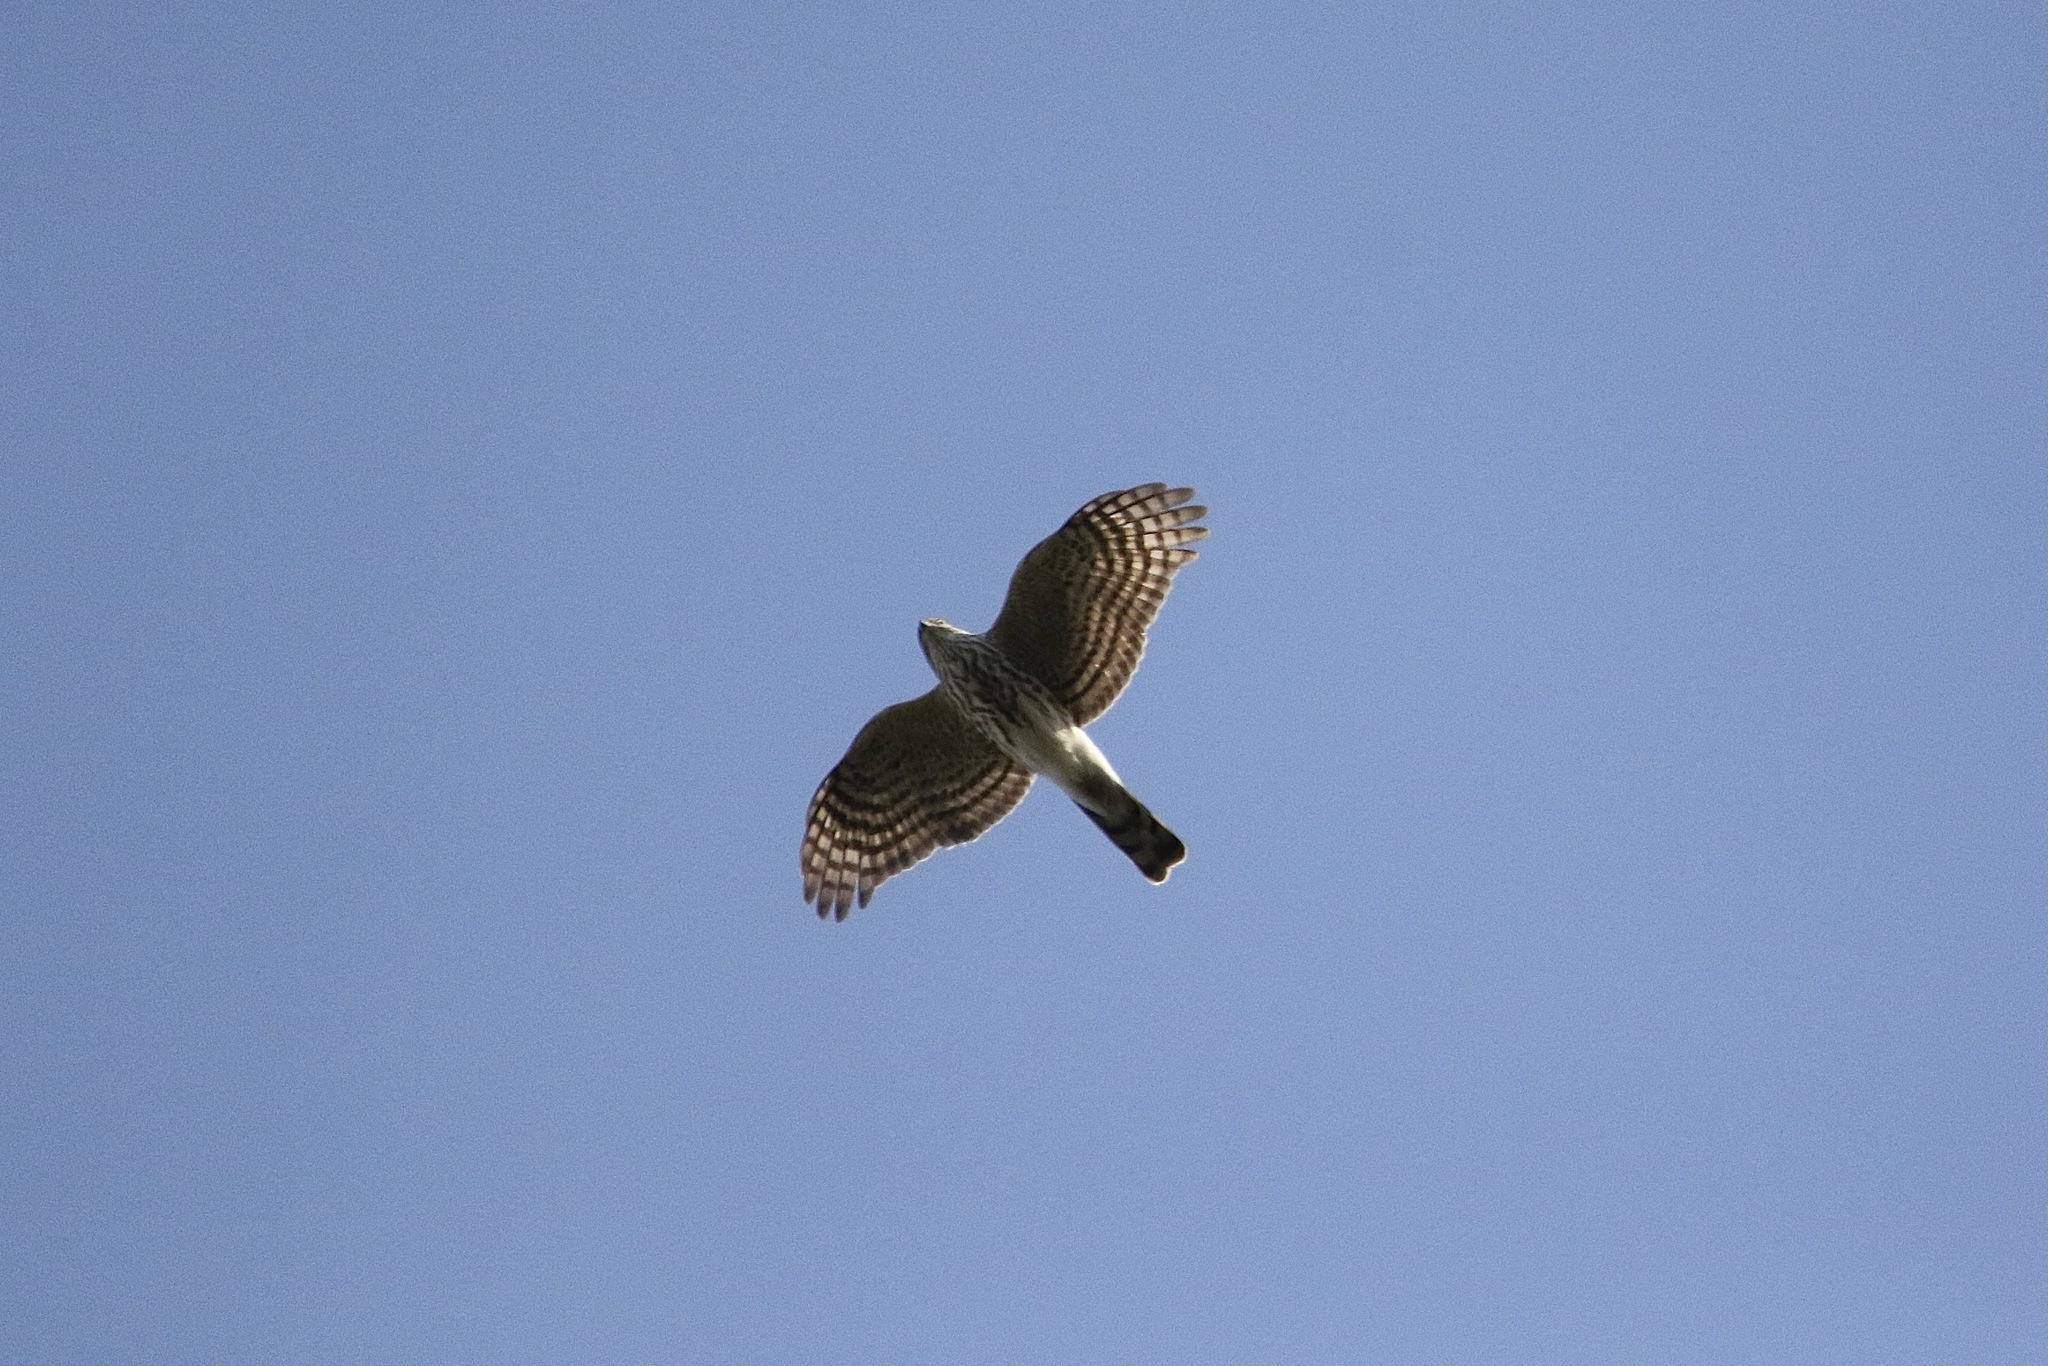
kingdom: Animalia
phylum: Chordata
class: Aves
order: Accipitriformes
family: Accipitridae
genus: Accipiter
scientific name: Accipiter striatus
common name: Sharp-shinned hawk
